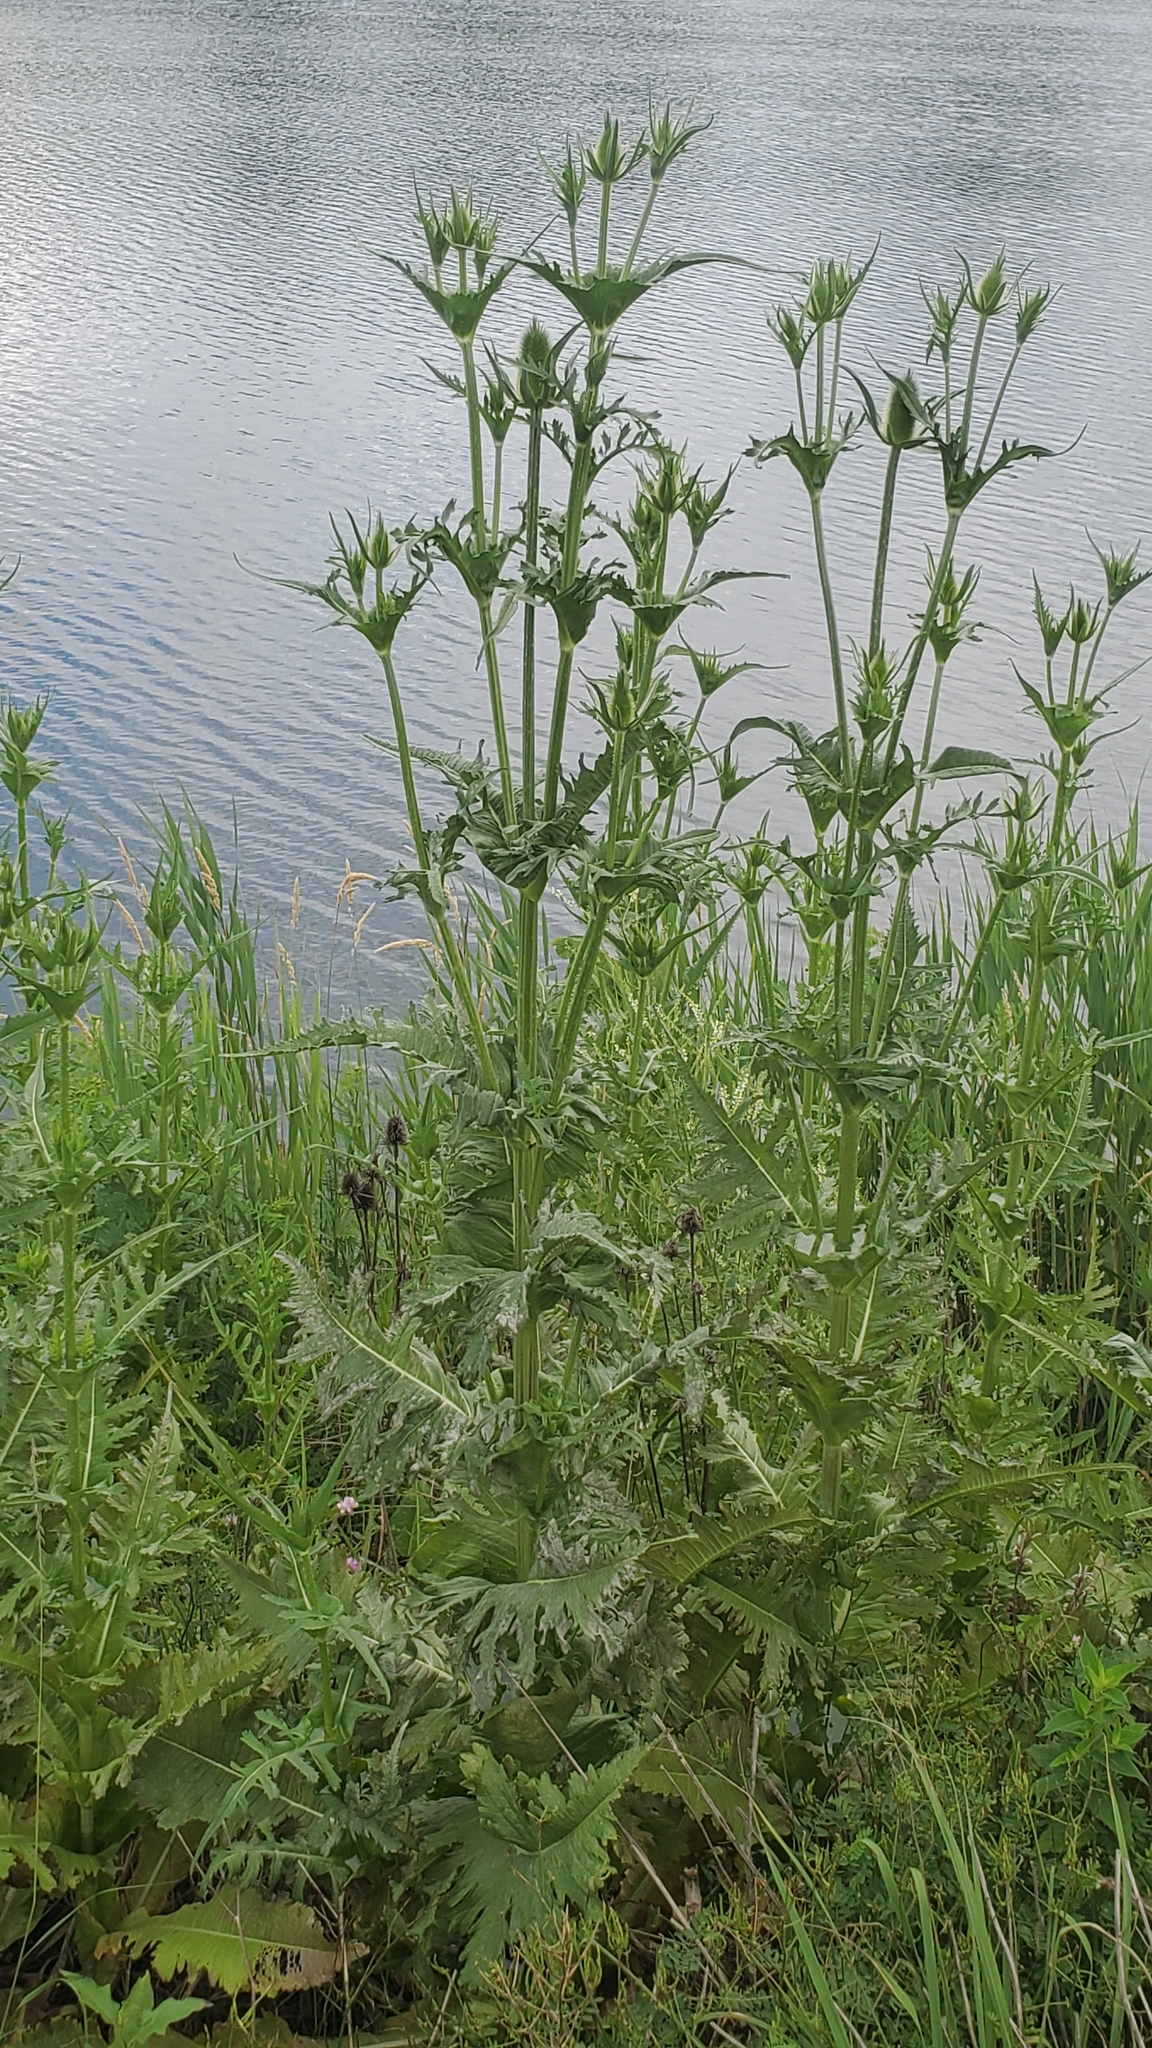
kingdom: Plantae
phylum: Tracheophyta
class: Magnoliopsida
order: Dipsacales
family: Caprifoliaceae
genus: Dipsacus
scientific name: Dipsacus laciniatus
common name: Cut-leaved teasel
